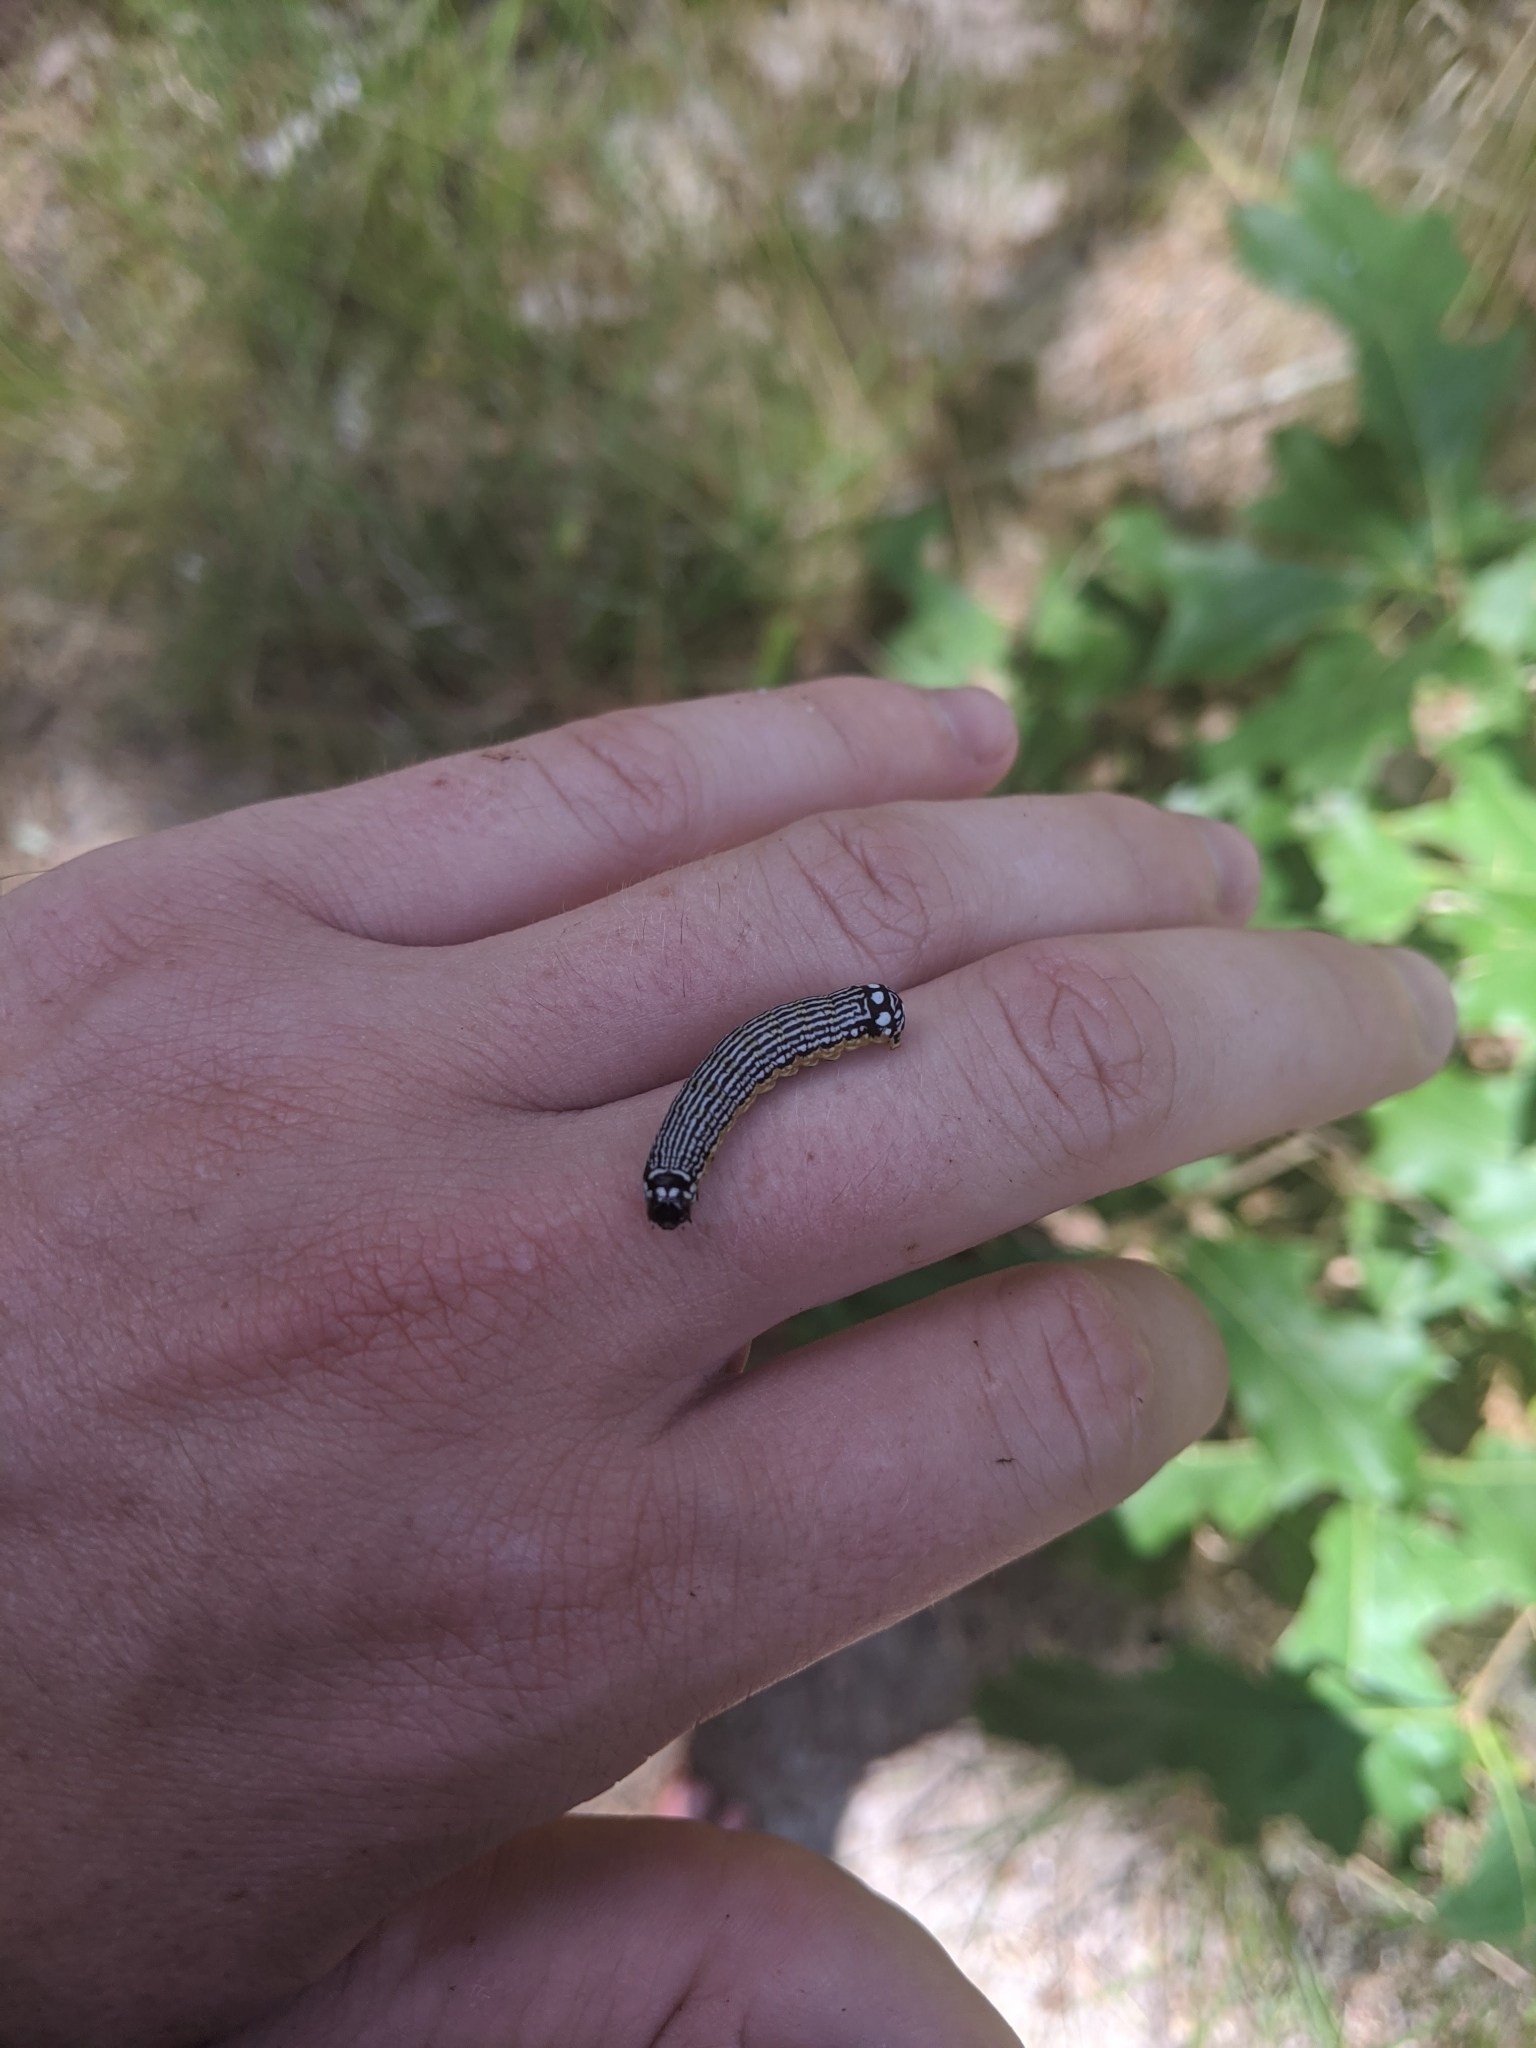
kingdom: Animalia
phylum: Arthropoda
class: Insecta
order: Lepidoptera
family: Noctuidae
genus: Phosphila
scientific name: Phosphila turbulenta
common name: Turbulent phosphila moth
